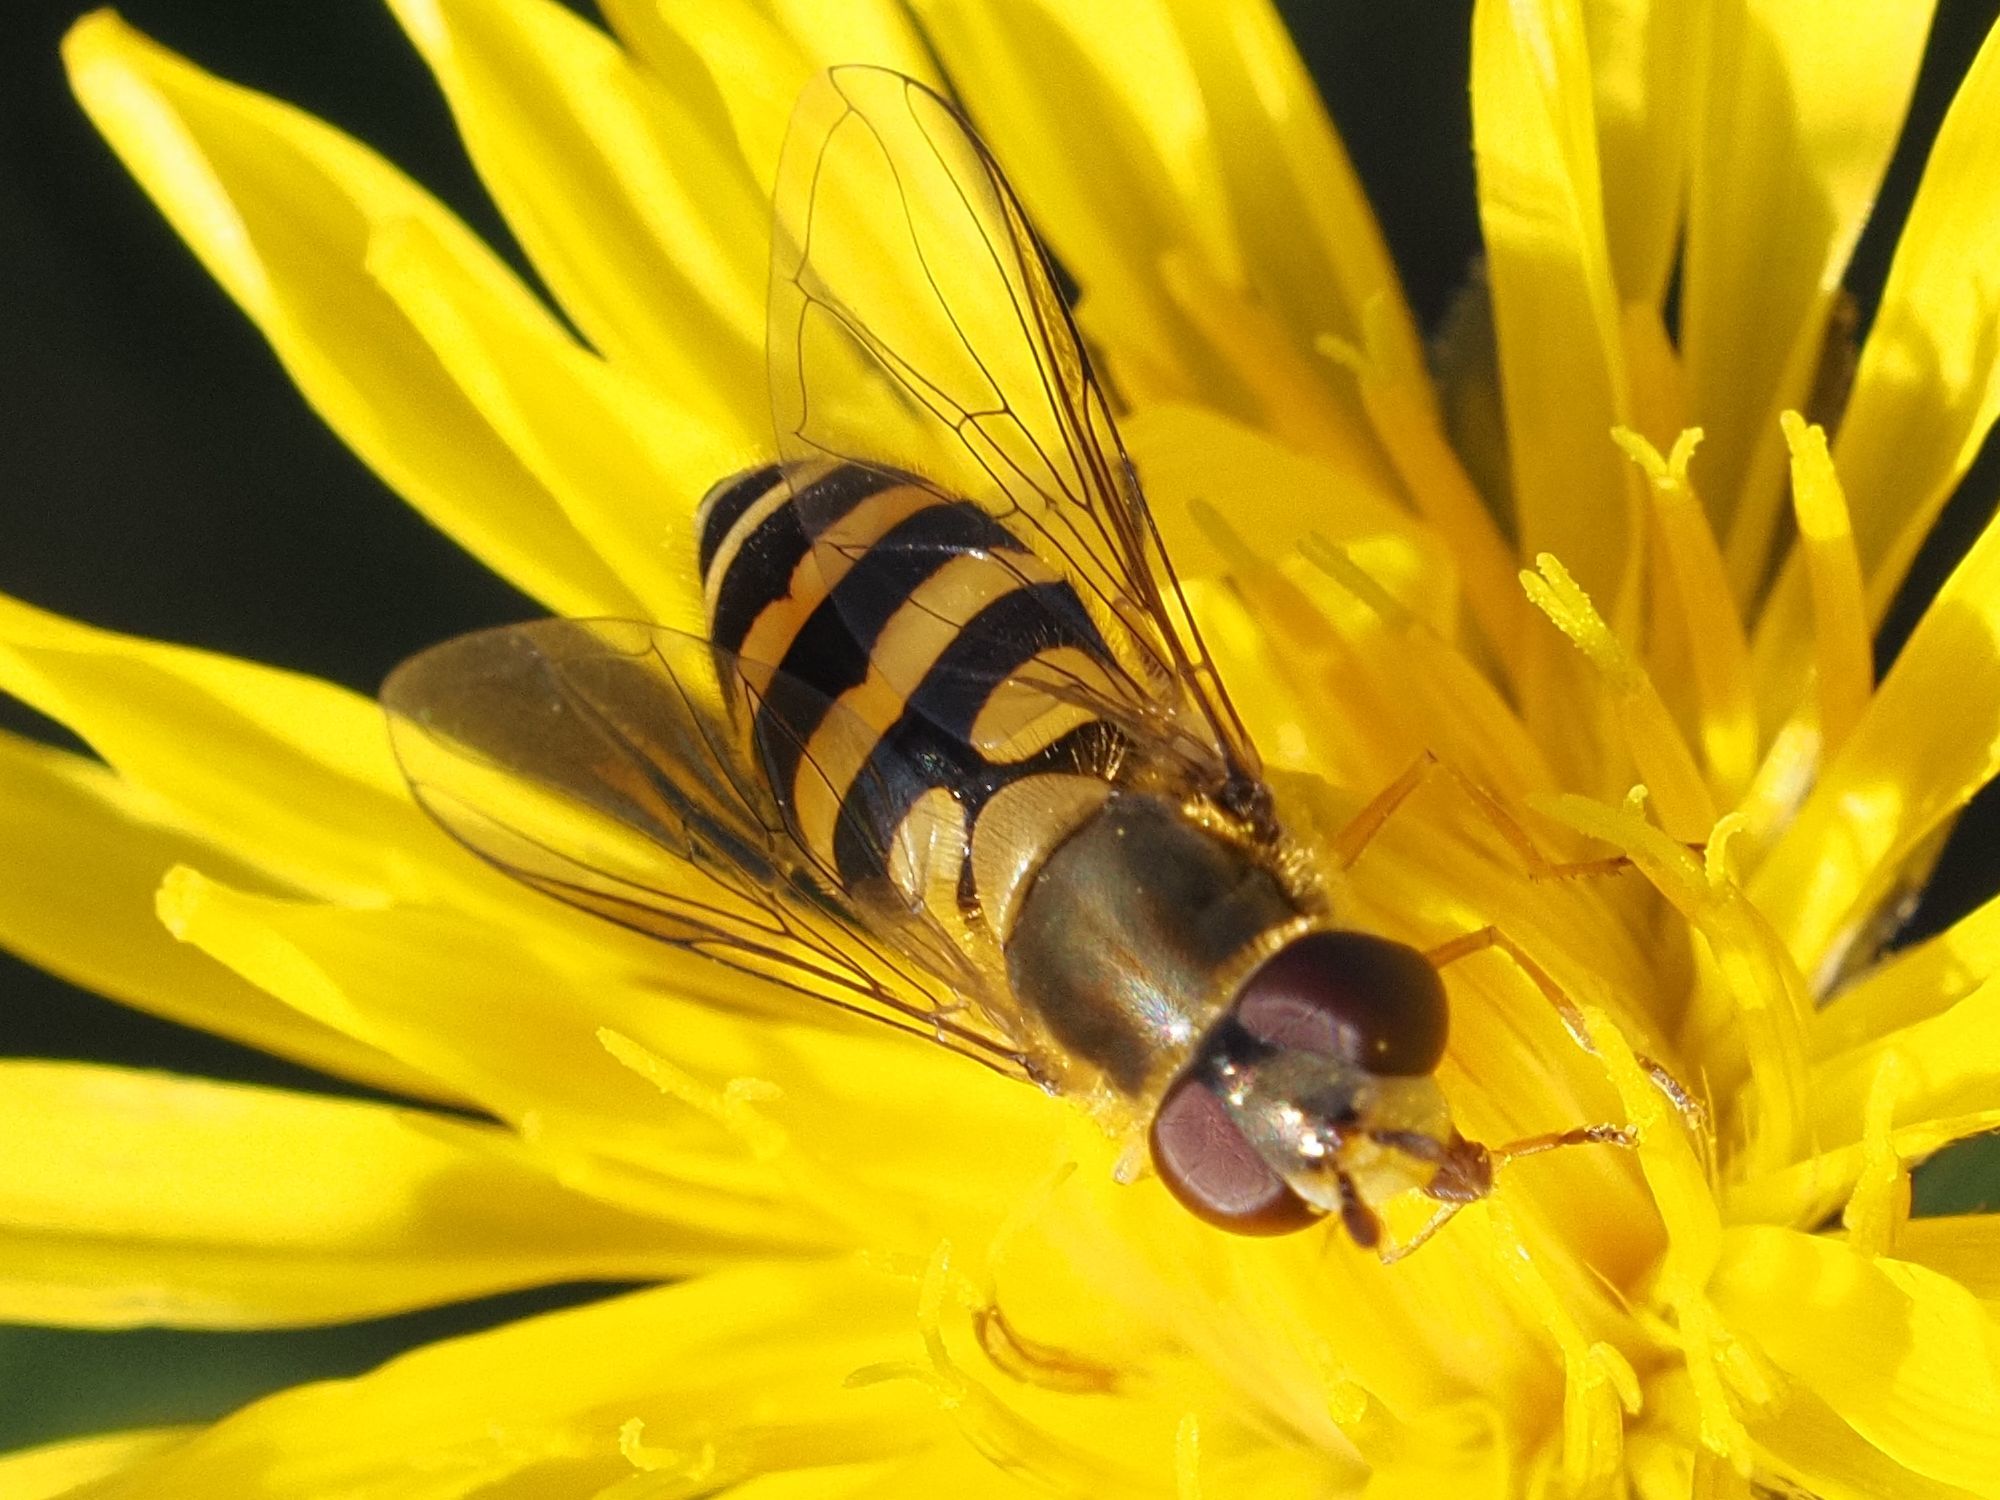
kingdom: Animalia
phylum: Arthropoda
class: Insecta
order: Diptera
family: Syrphidae
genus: Syrphus
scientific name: Syrphus
